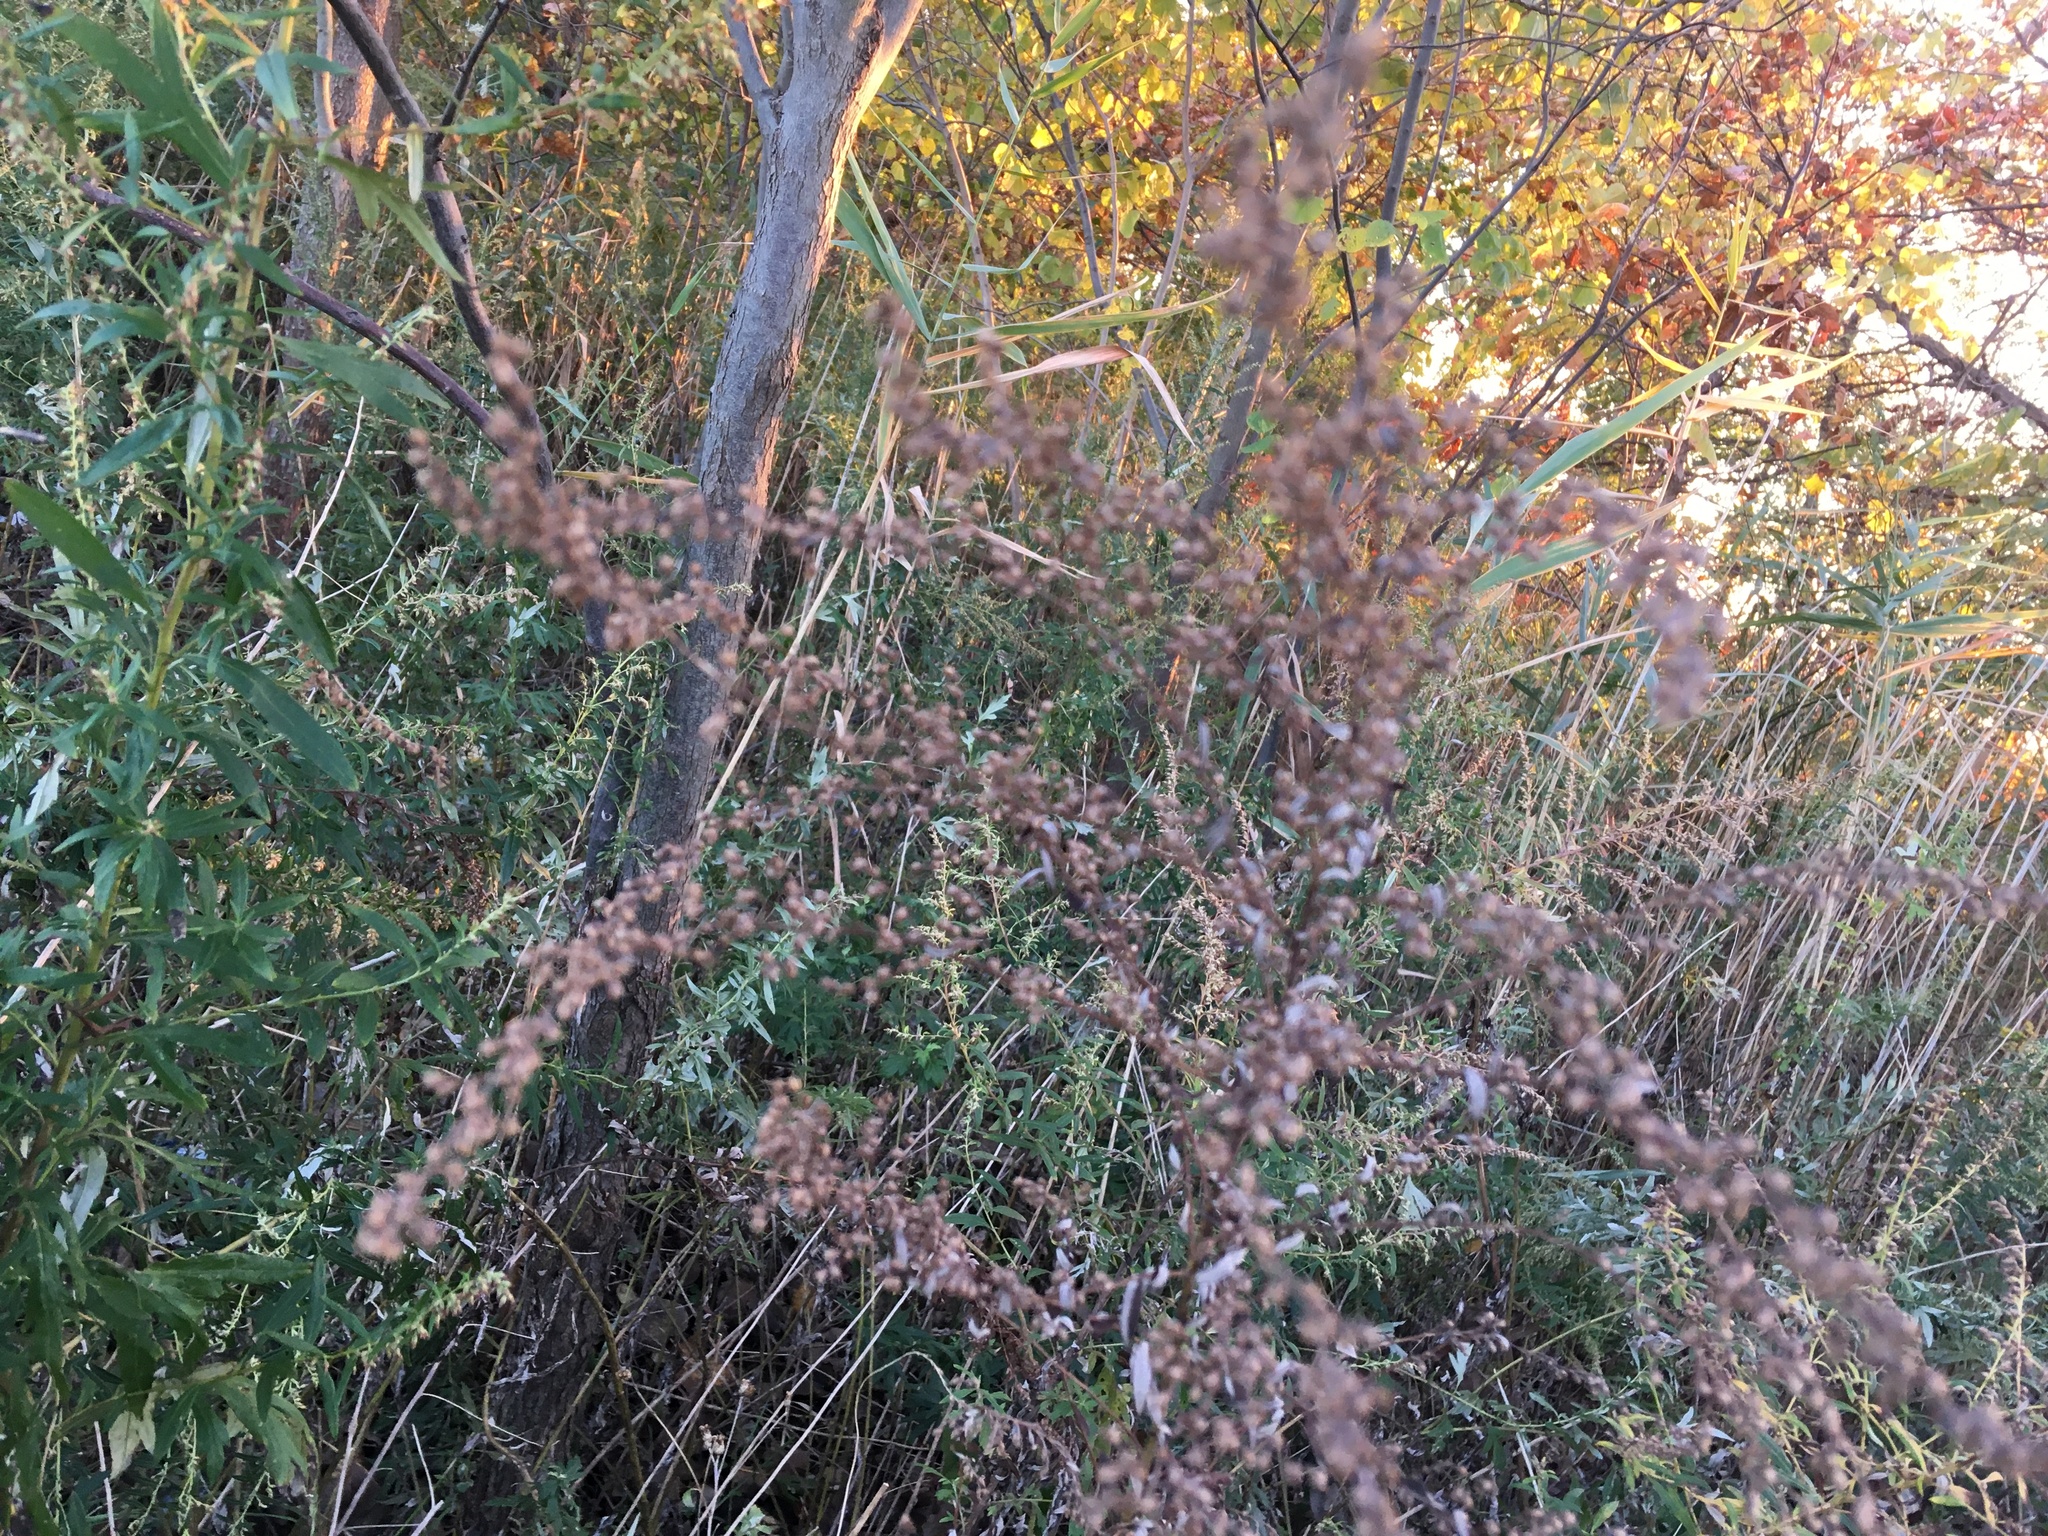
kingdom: Plantae
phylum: Tracheophyta
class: Magnoliopsida
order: Asterales
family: Asteraceae
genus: Artemisia
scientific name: Artemisia vulgaris
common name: Mugwort
